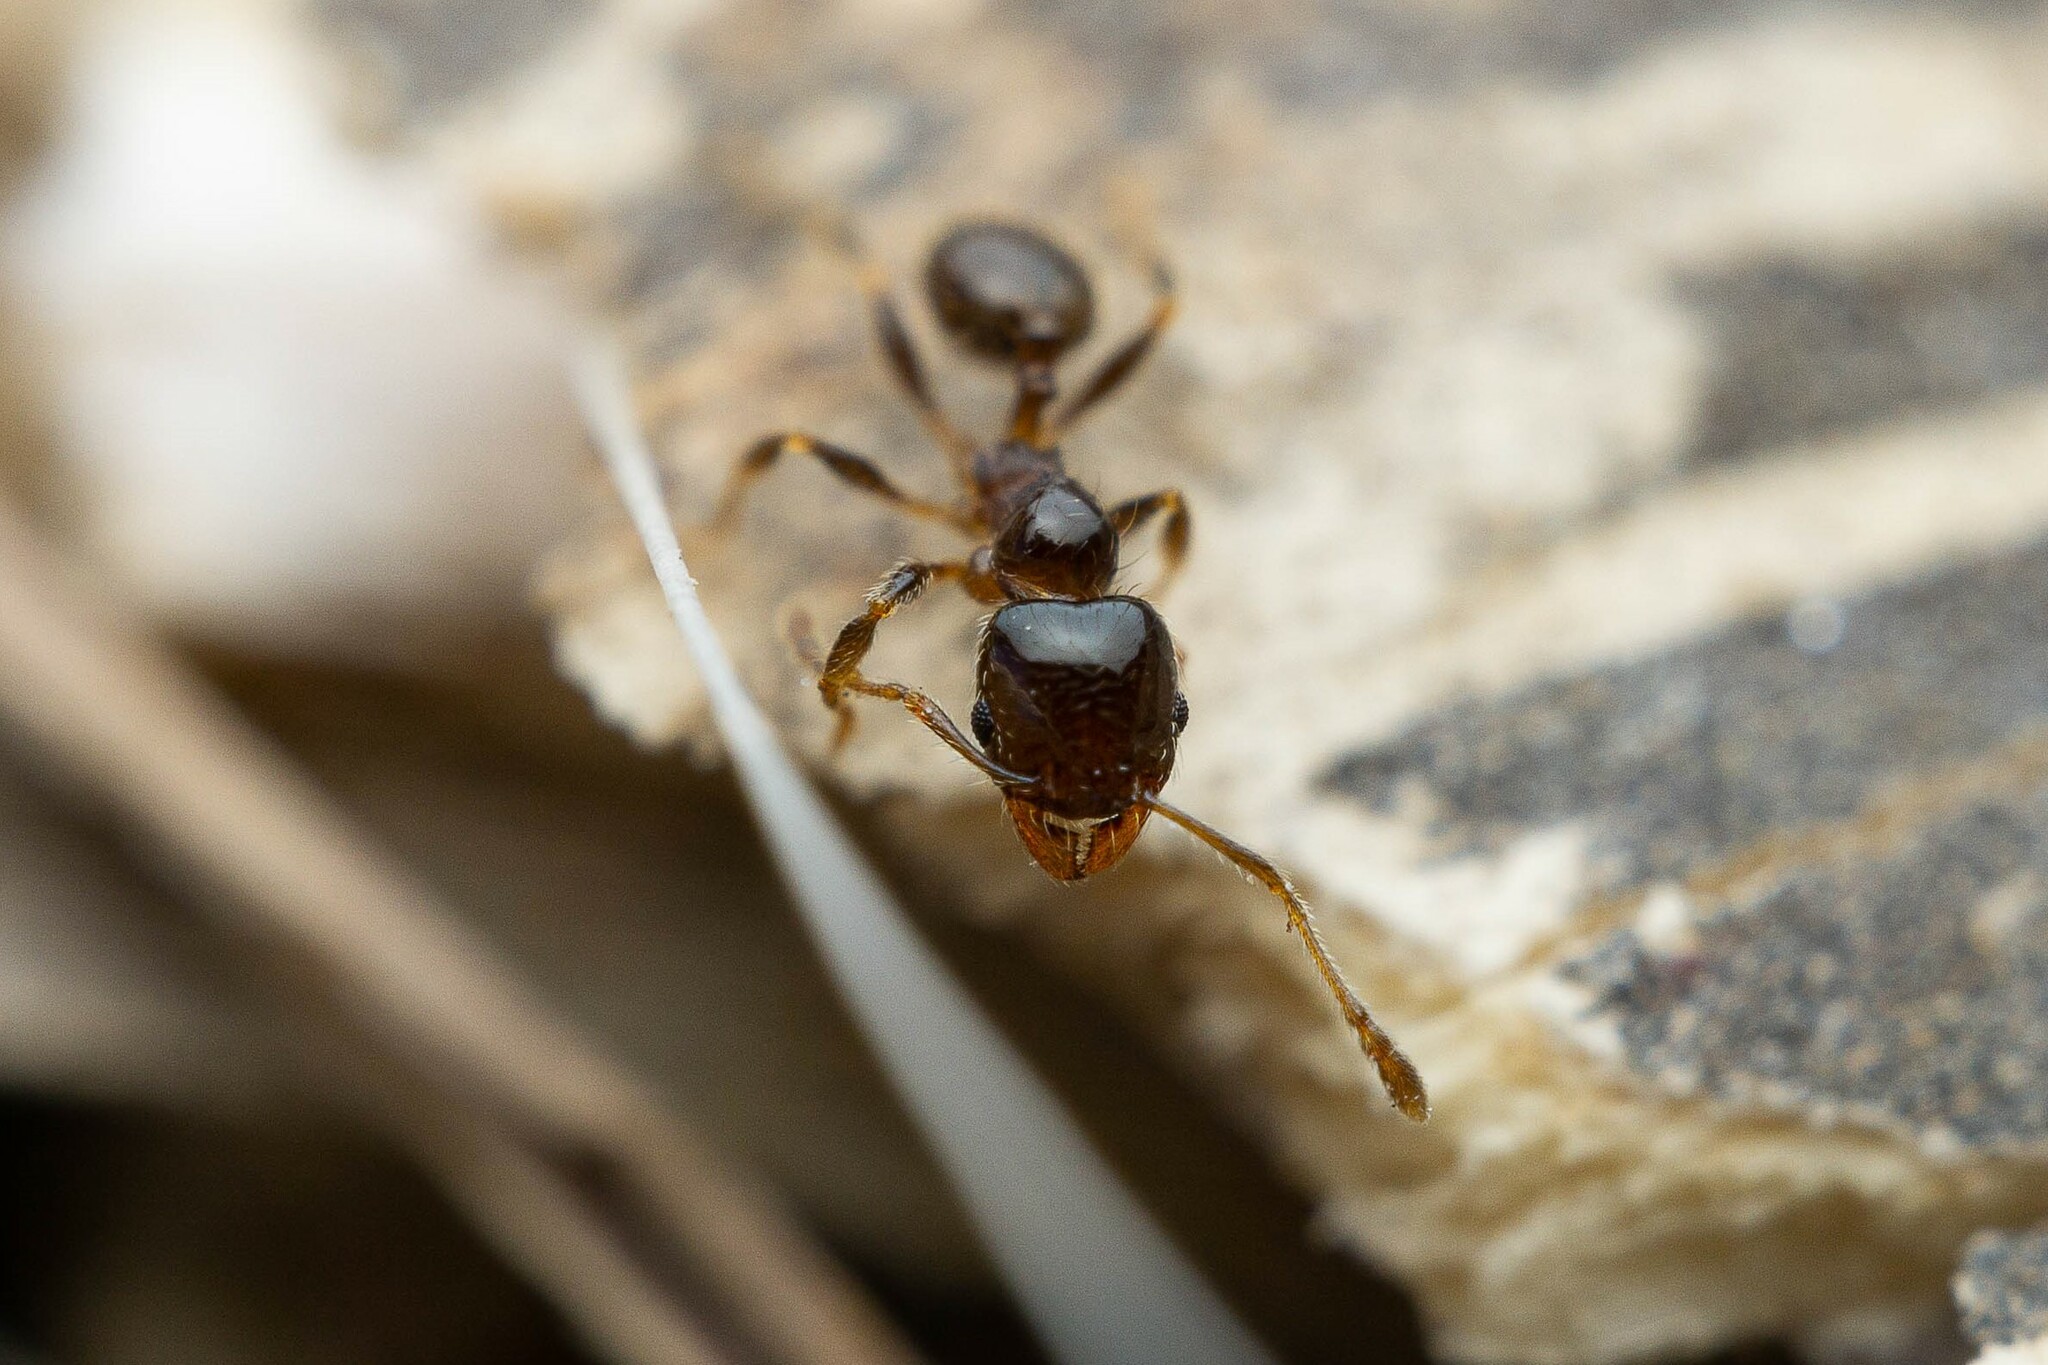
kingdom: Animalia
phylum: Arthropoda
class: Insecta
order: Hymenoptera
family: Formicidae
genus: Pheidole
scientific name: Pheidole bicarinata
